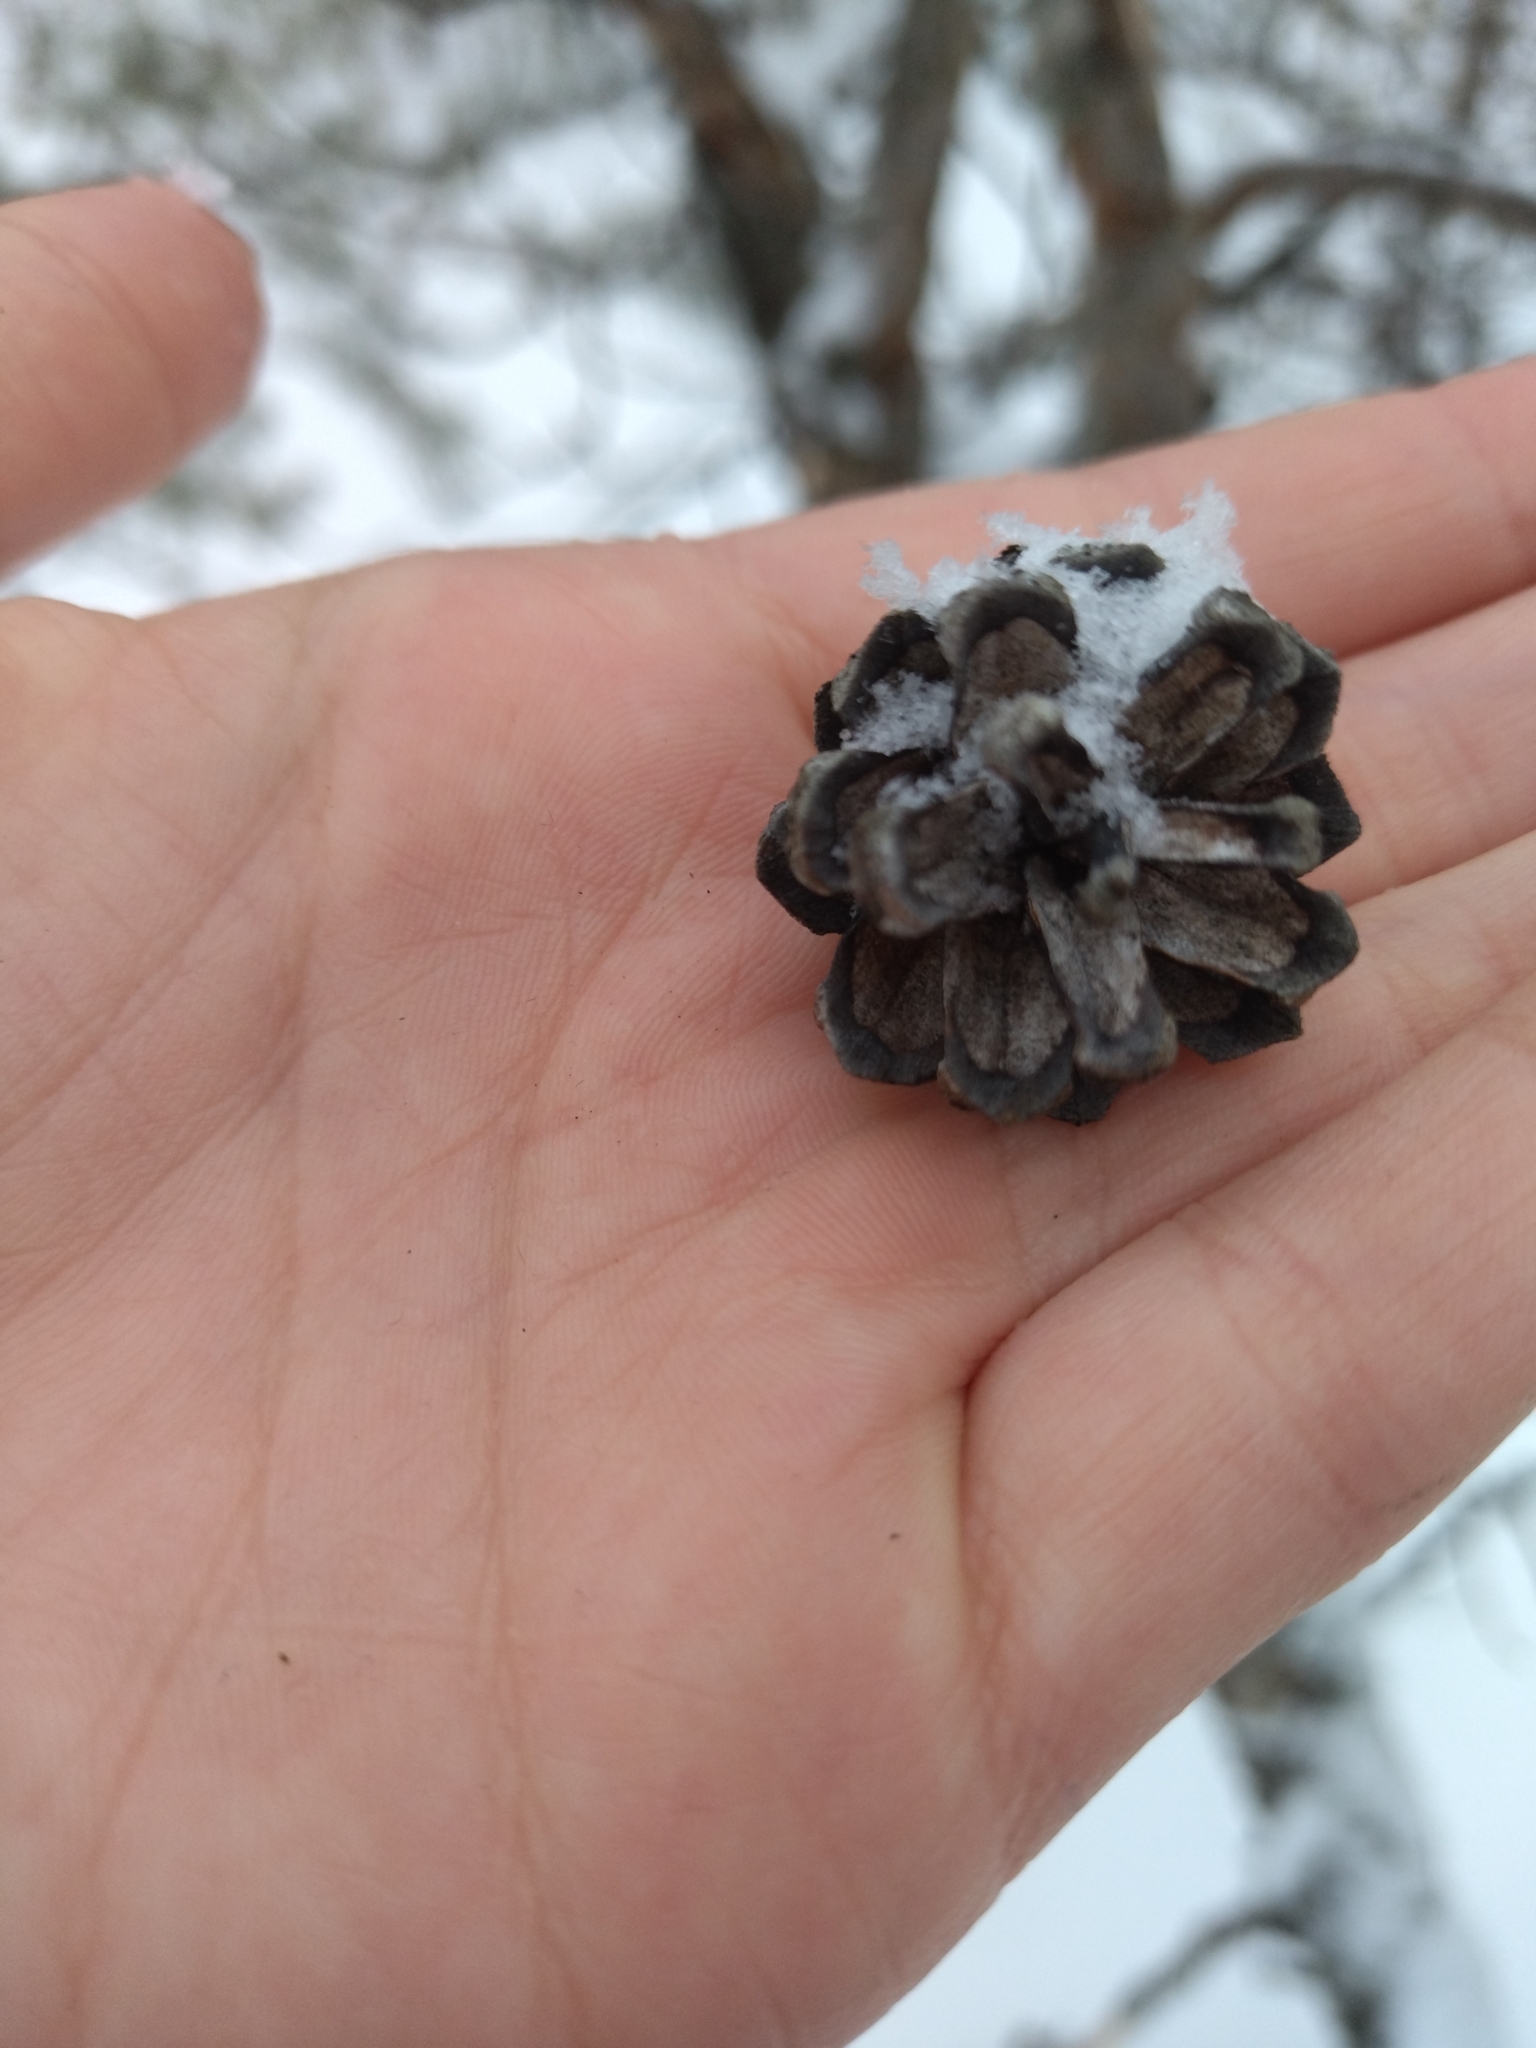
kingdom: Plantae
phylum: Tracheophyta
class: Pinopsida
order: Pinales
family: Pinaceae
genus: Pinus
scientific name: Pinus sylvestris
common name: Scots pine
